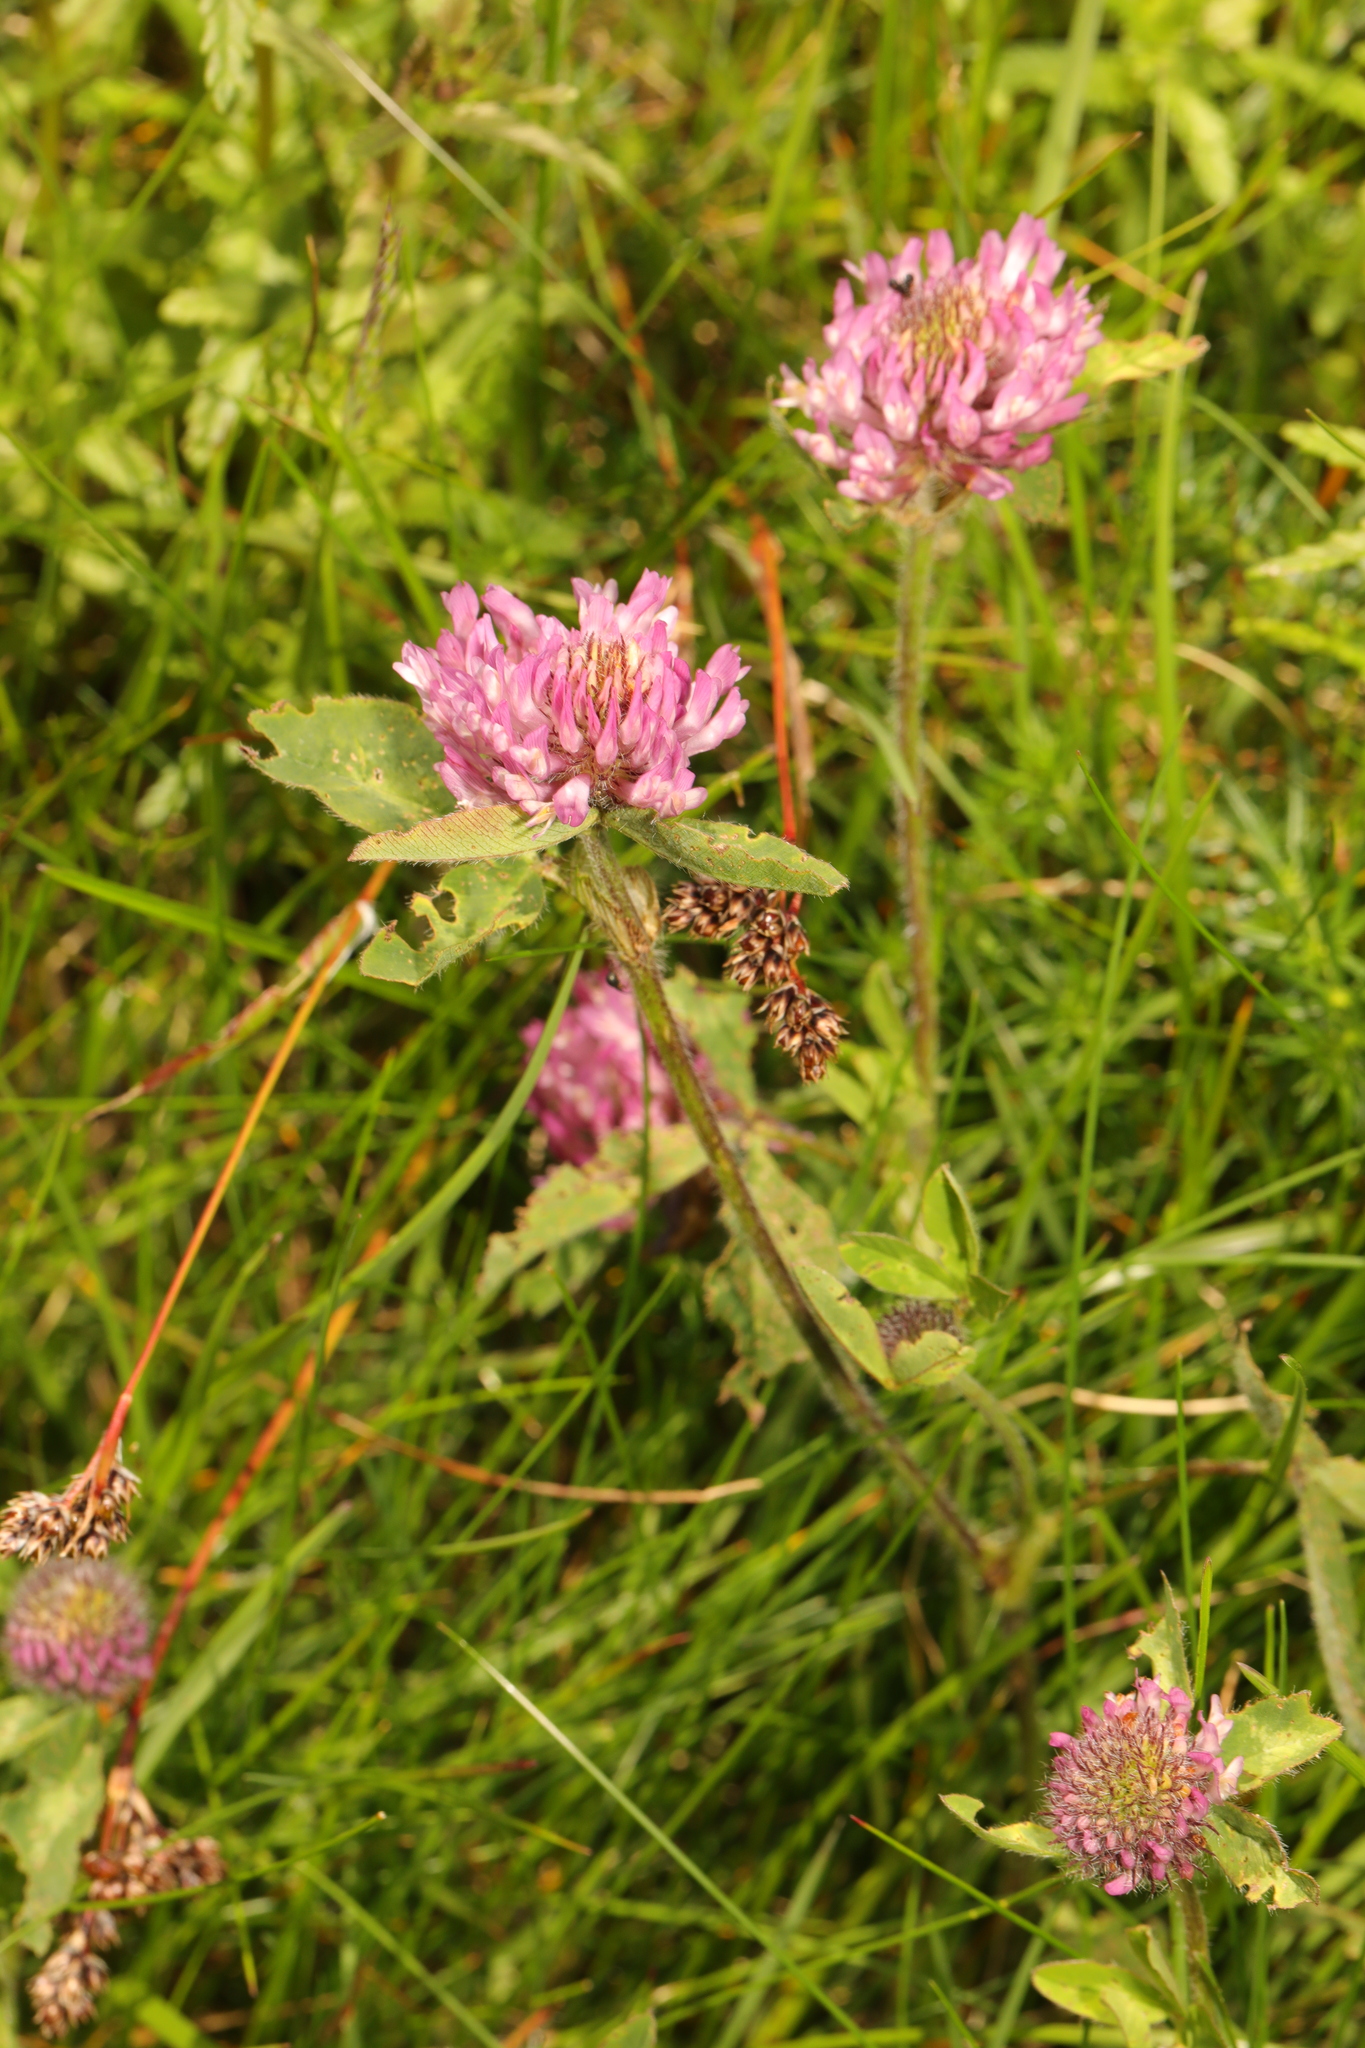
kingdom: Plantae
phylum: Tracheophyta
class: Magnoliopsida
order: Fabales
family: Fabaceae
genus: Trifolium
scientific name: Trifolium pratense
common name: Red clover
